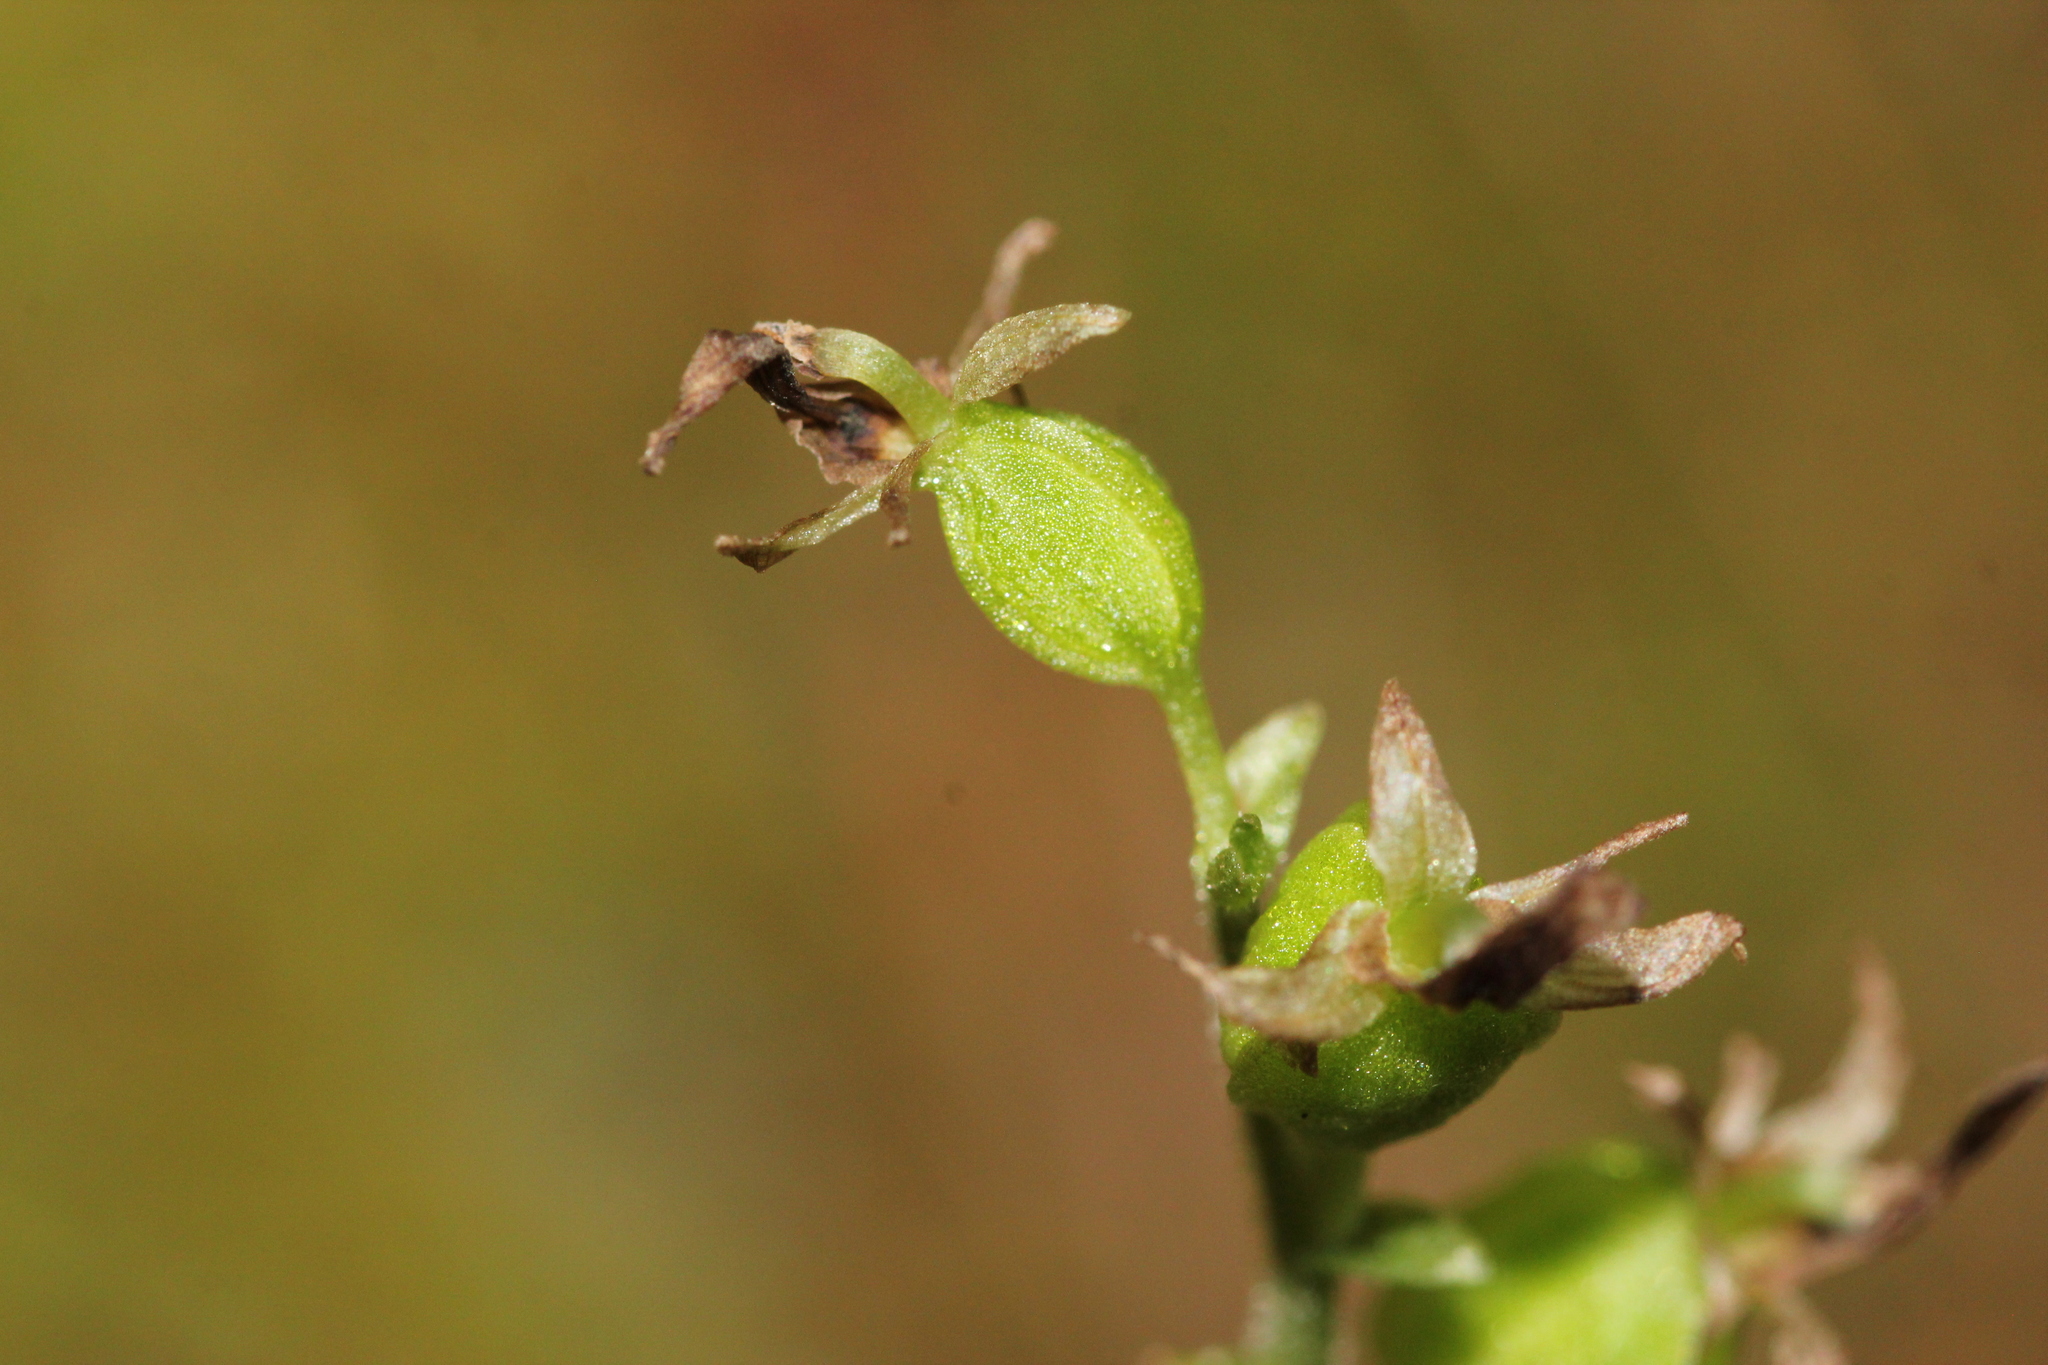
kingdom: Plantae
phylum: Tracheophyta
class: Liliopsida
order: Asparagales
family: Orchidaceae
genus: Neottia
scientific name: Neottia auriculata
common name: Auricled twayblade
